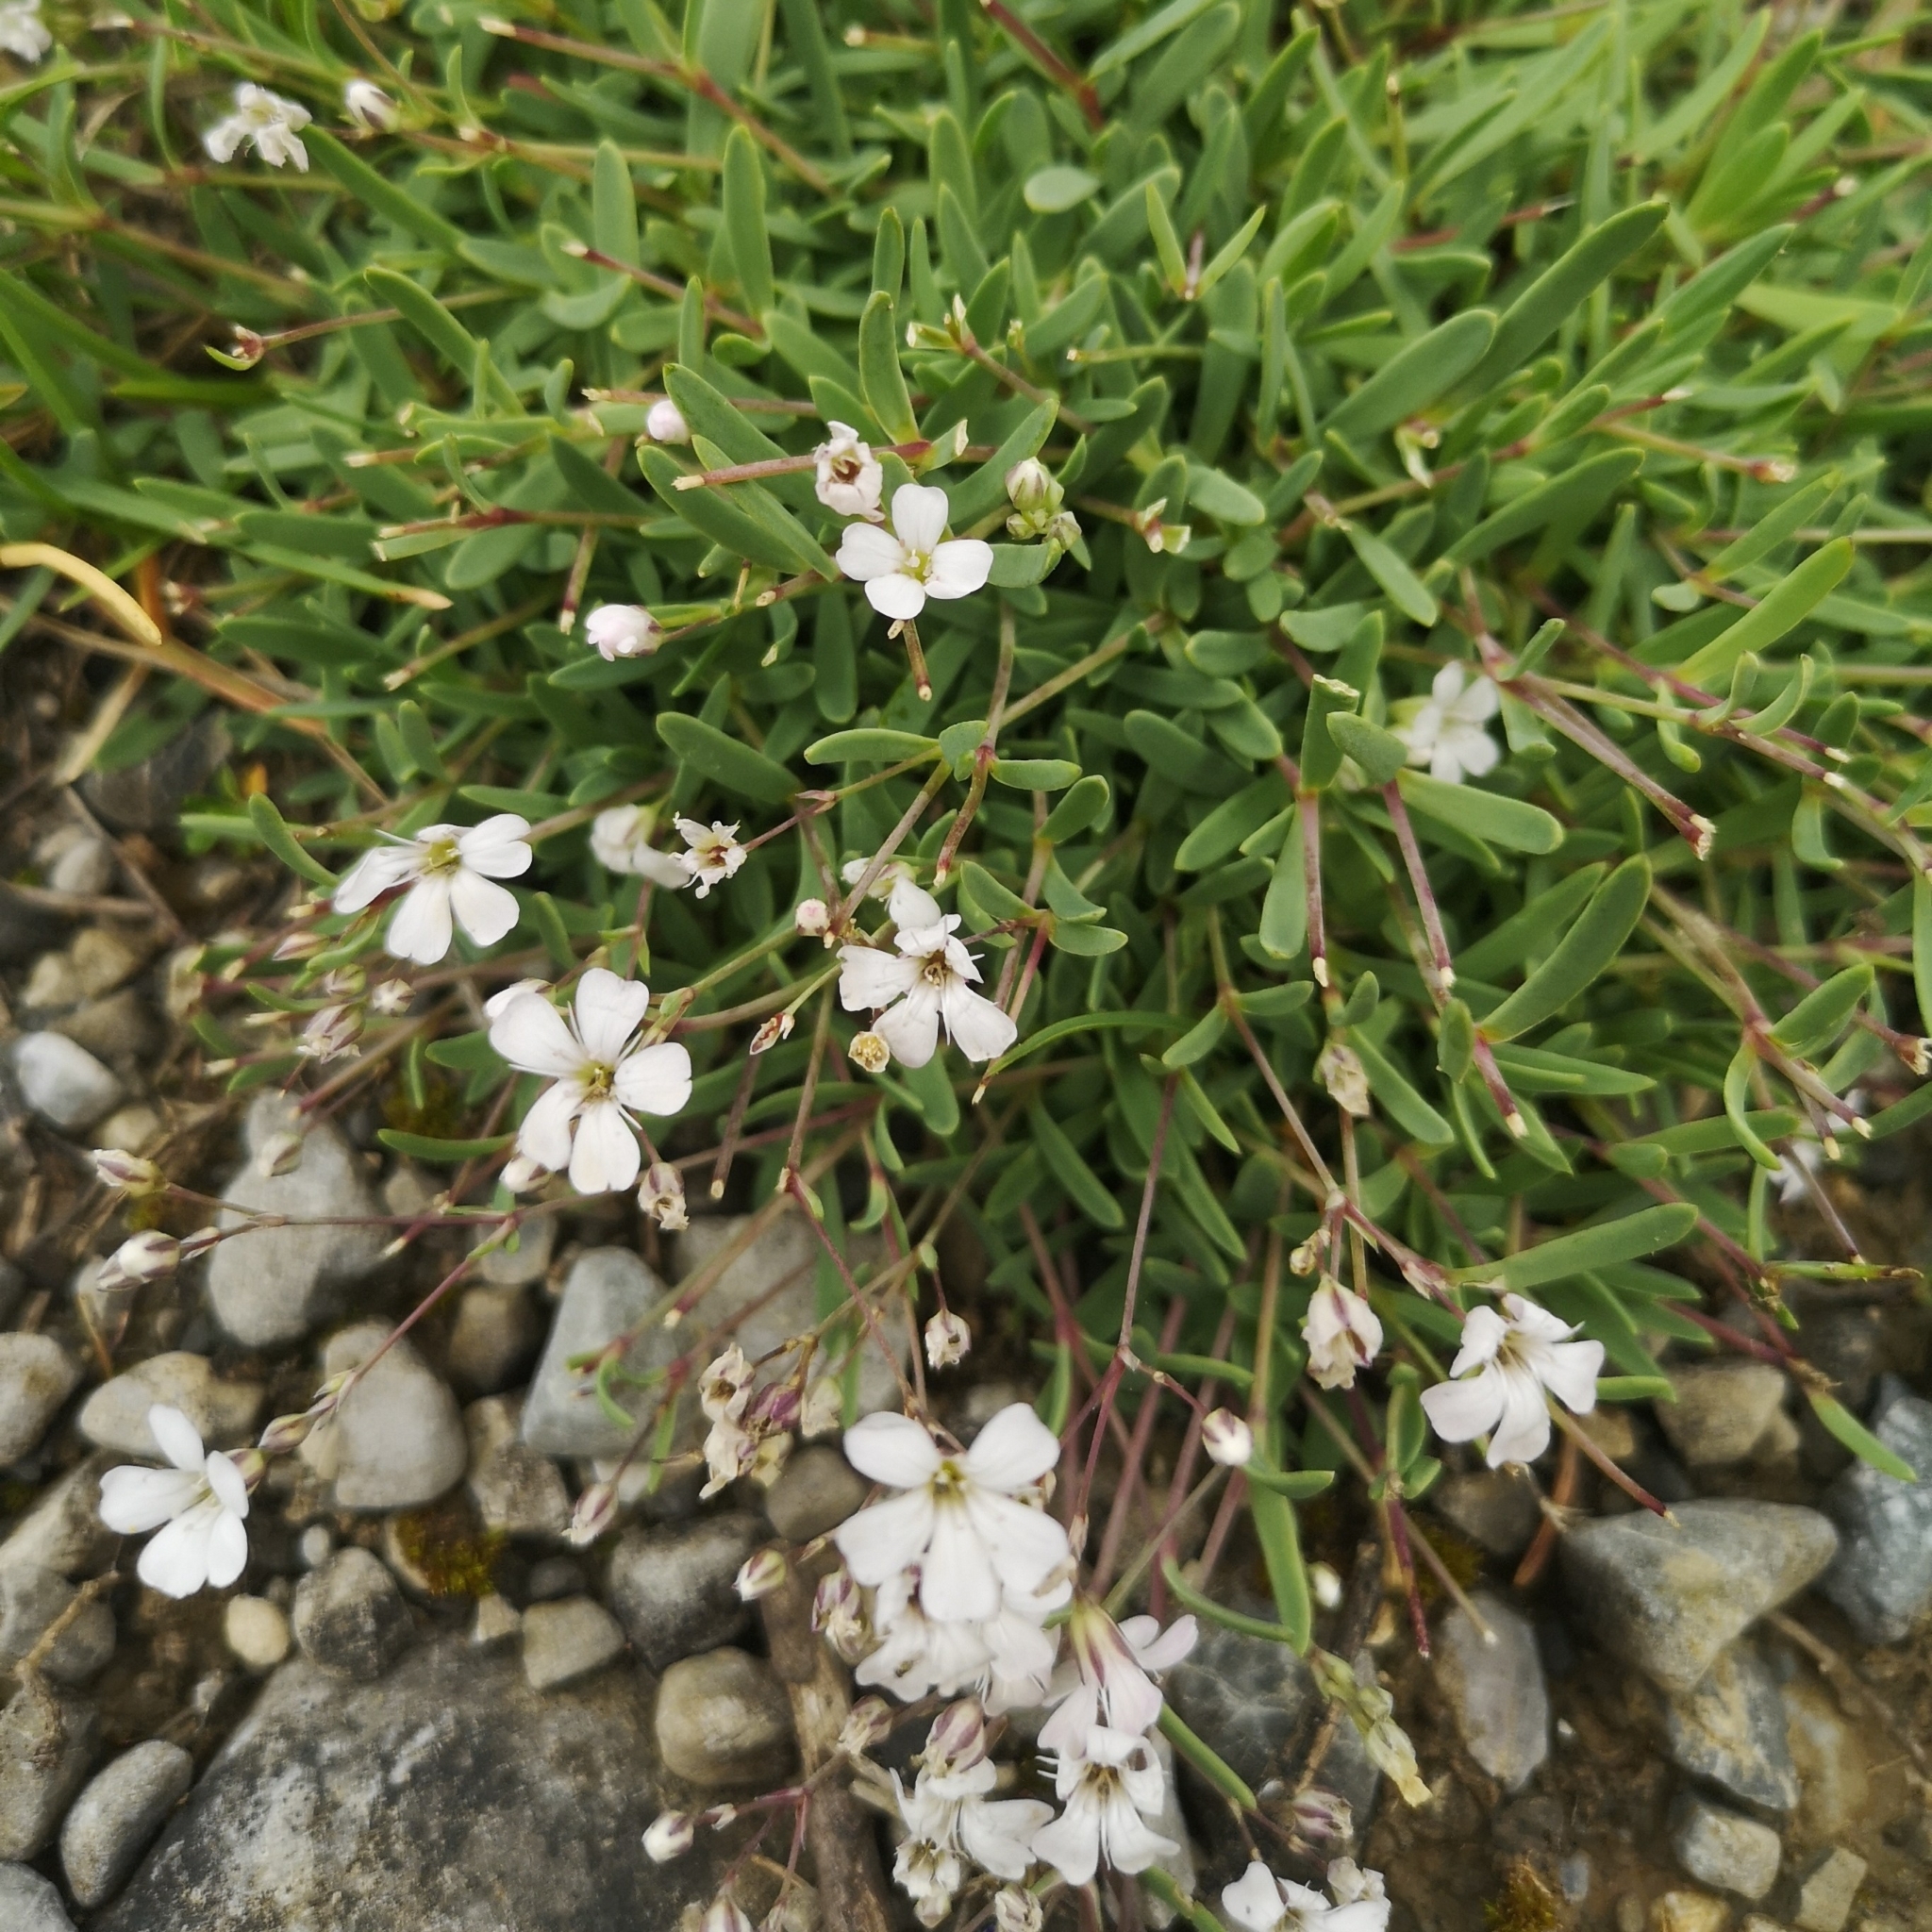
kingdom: Plantae
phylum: Tracheophyta
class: Magnoliopsida
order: Caryophyllales
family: Caryophyllaceae
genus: Gypsophila
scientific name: Gypsophila repens
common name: Creeping baby's-breath
